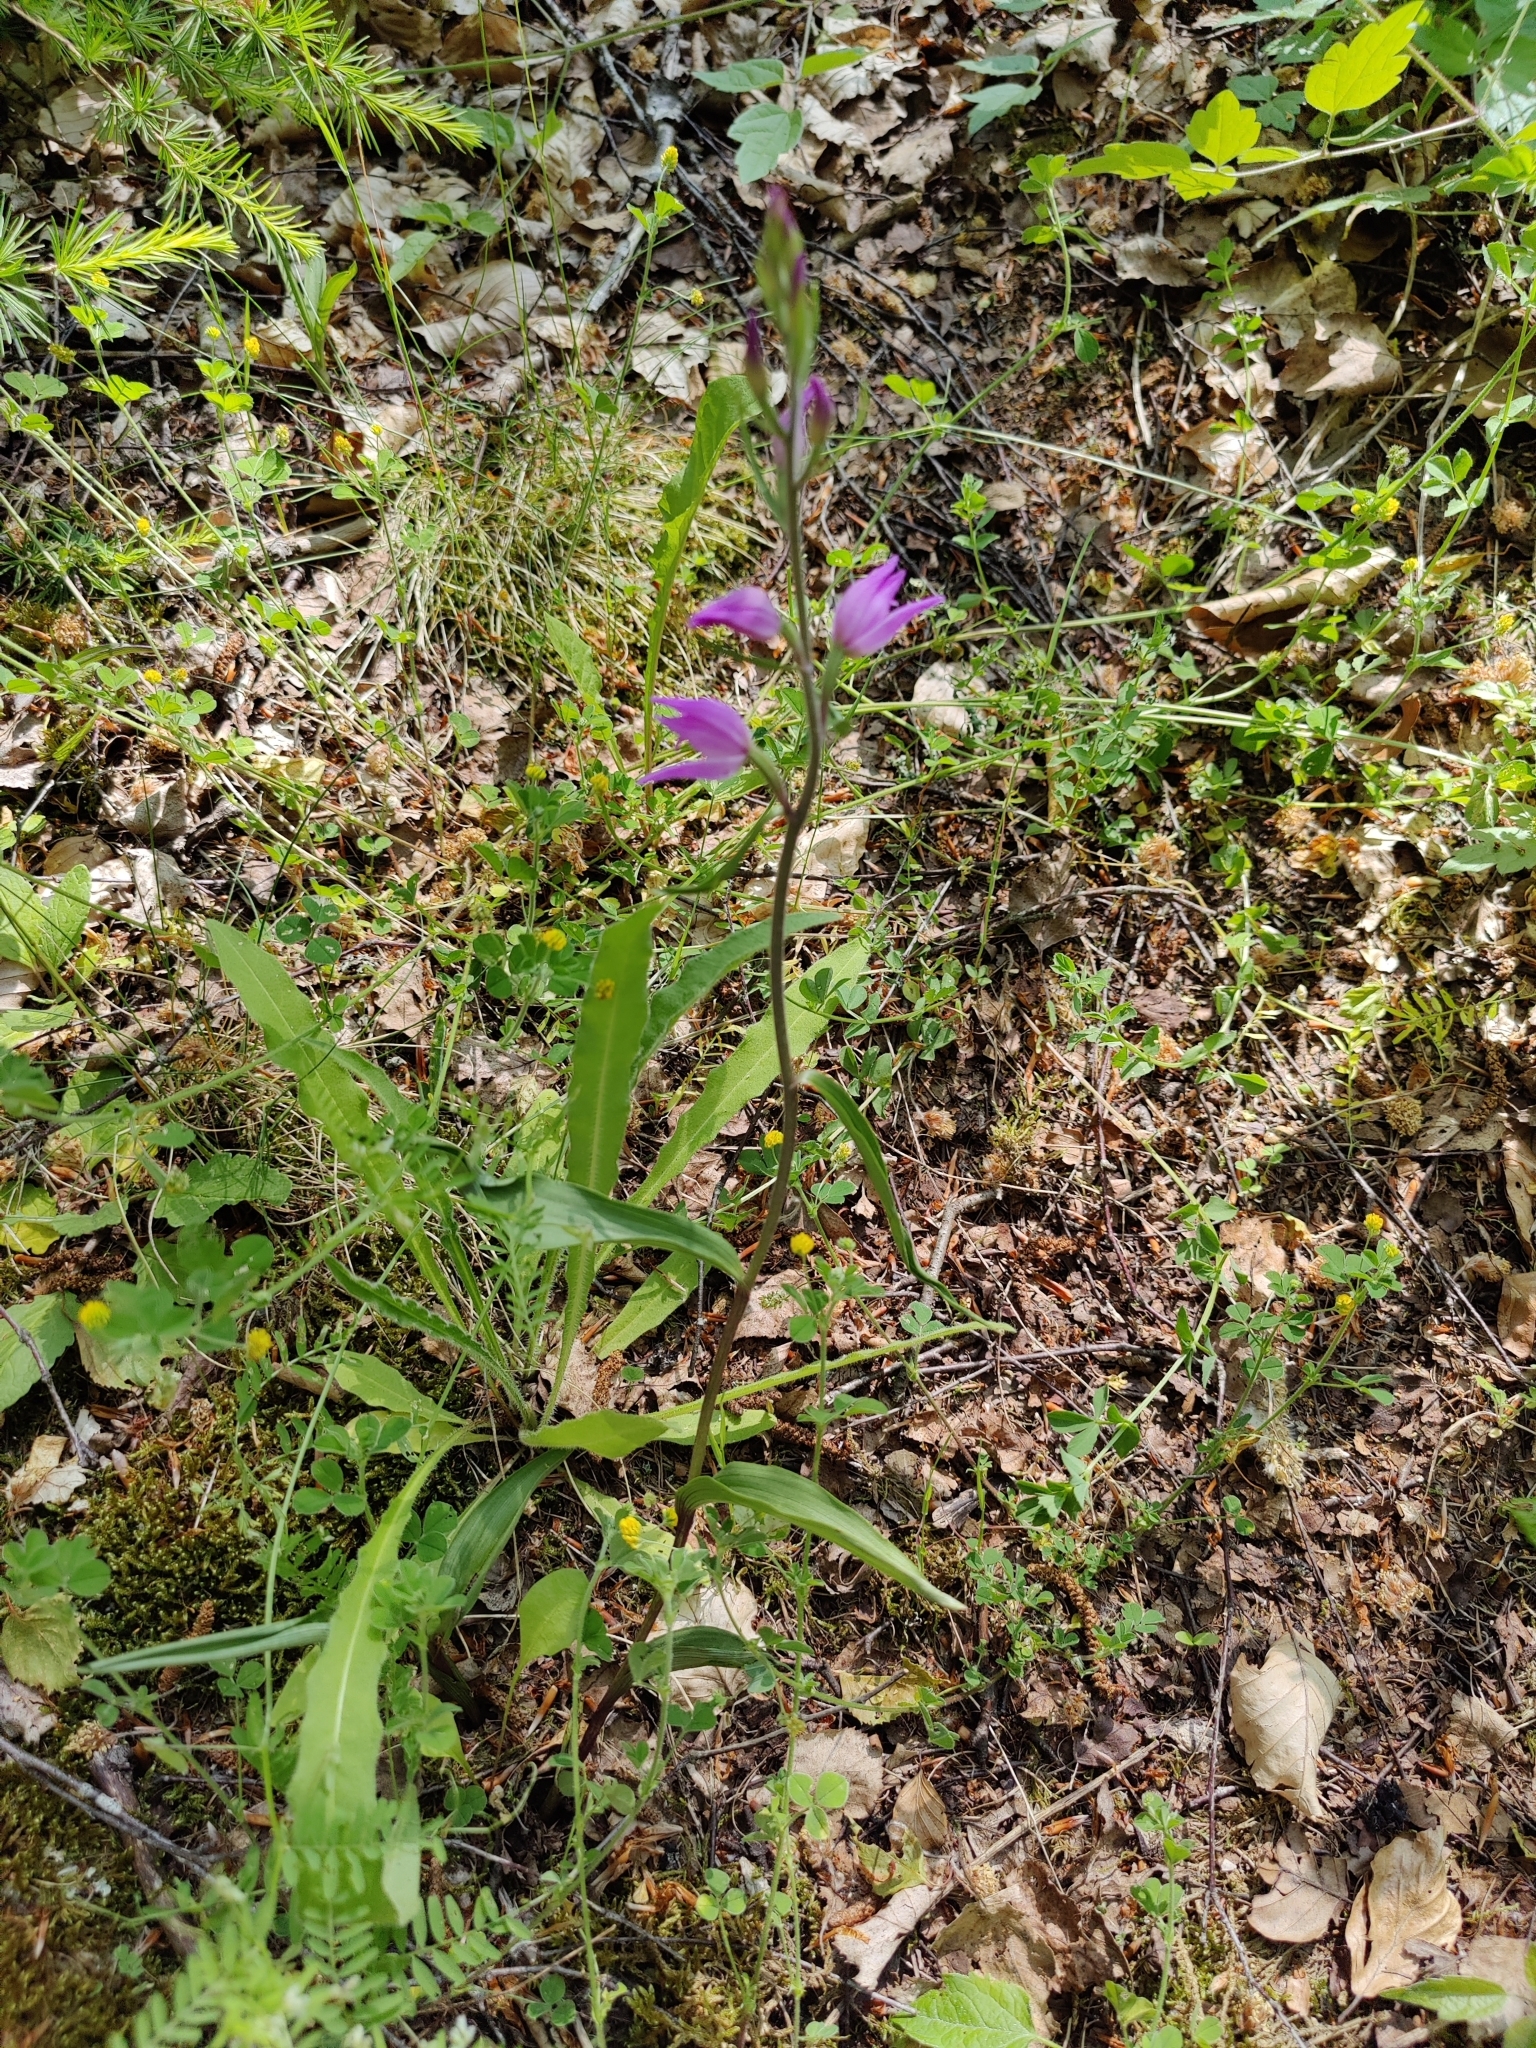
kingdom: Plantae
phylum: Tracheophyta
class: Liliopsida
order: Asparagales
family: Orchidaceae
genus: Cephalanthera
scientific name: Cephalanthera rubra
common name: Red helleborine
